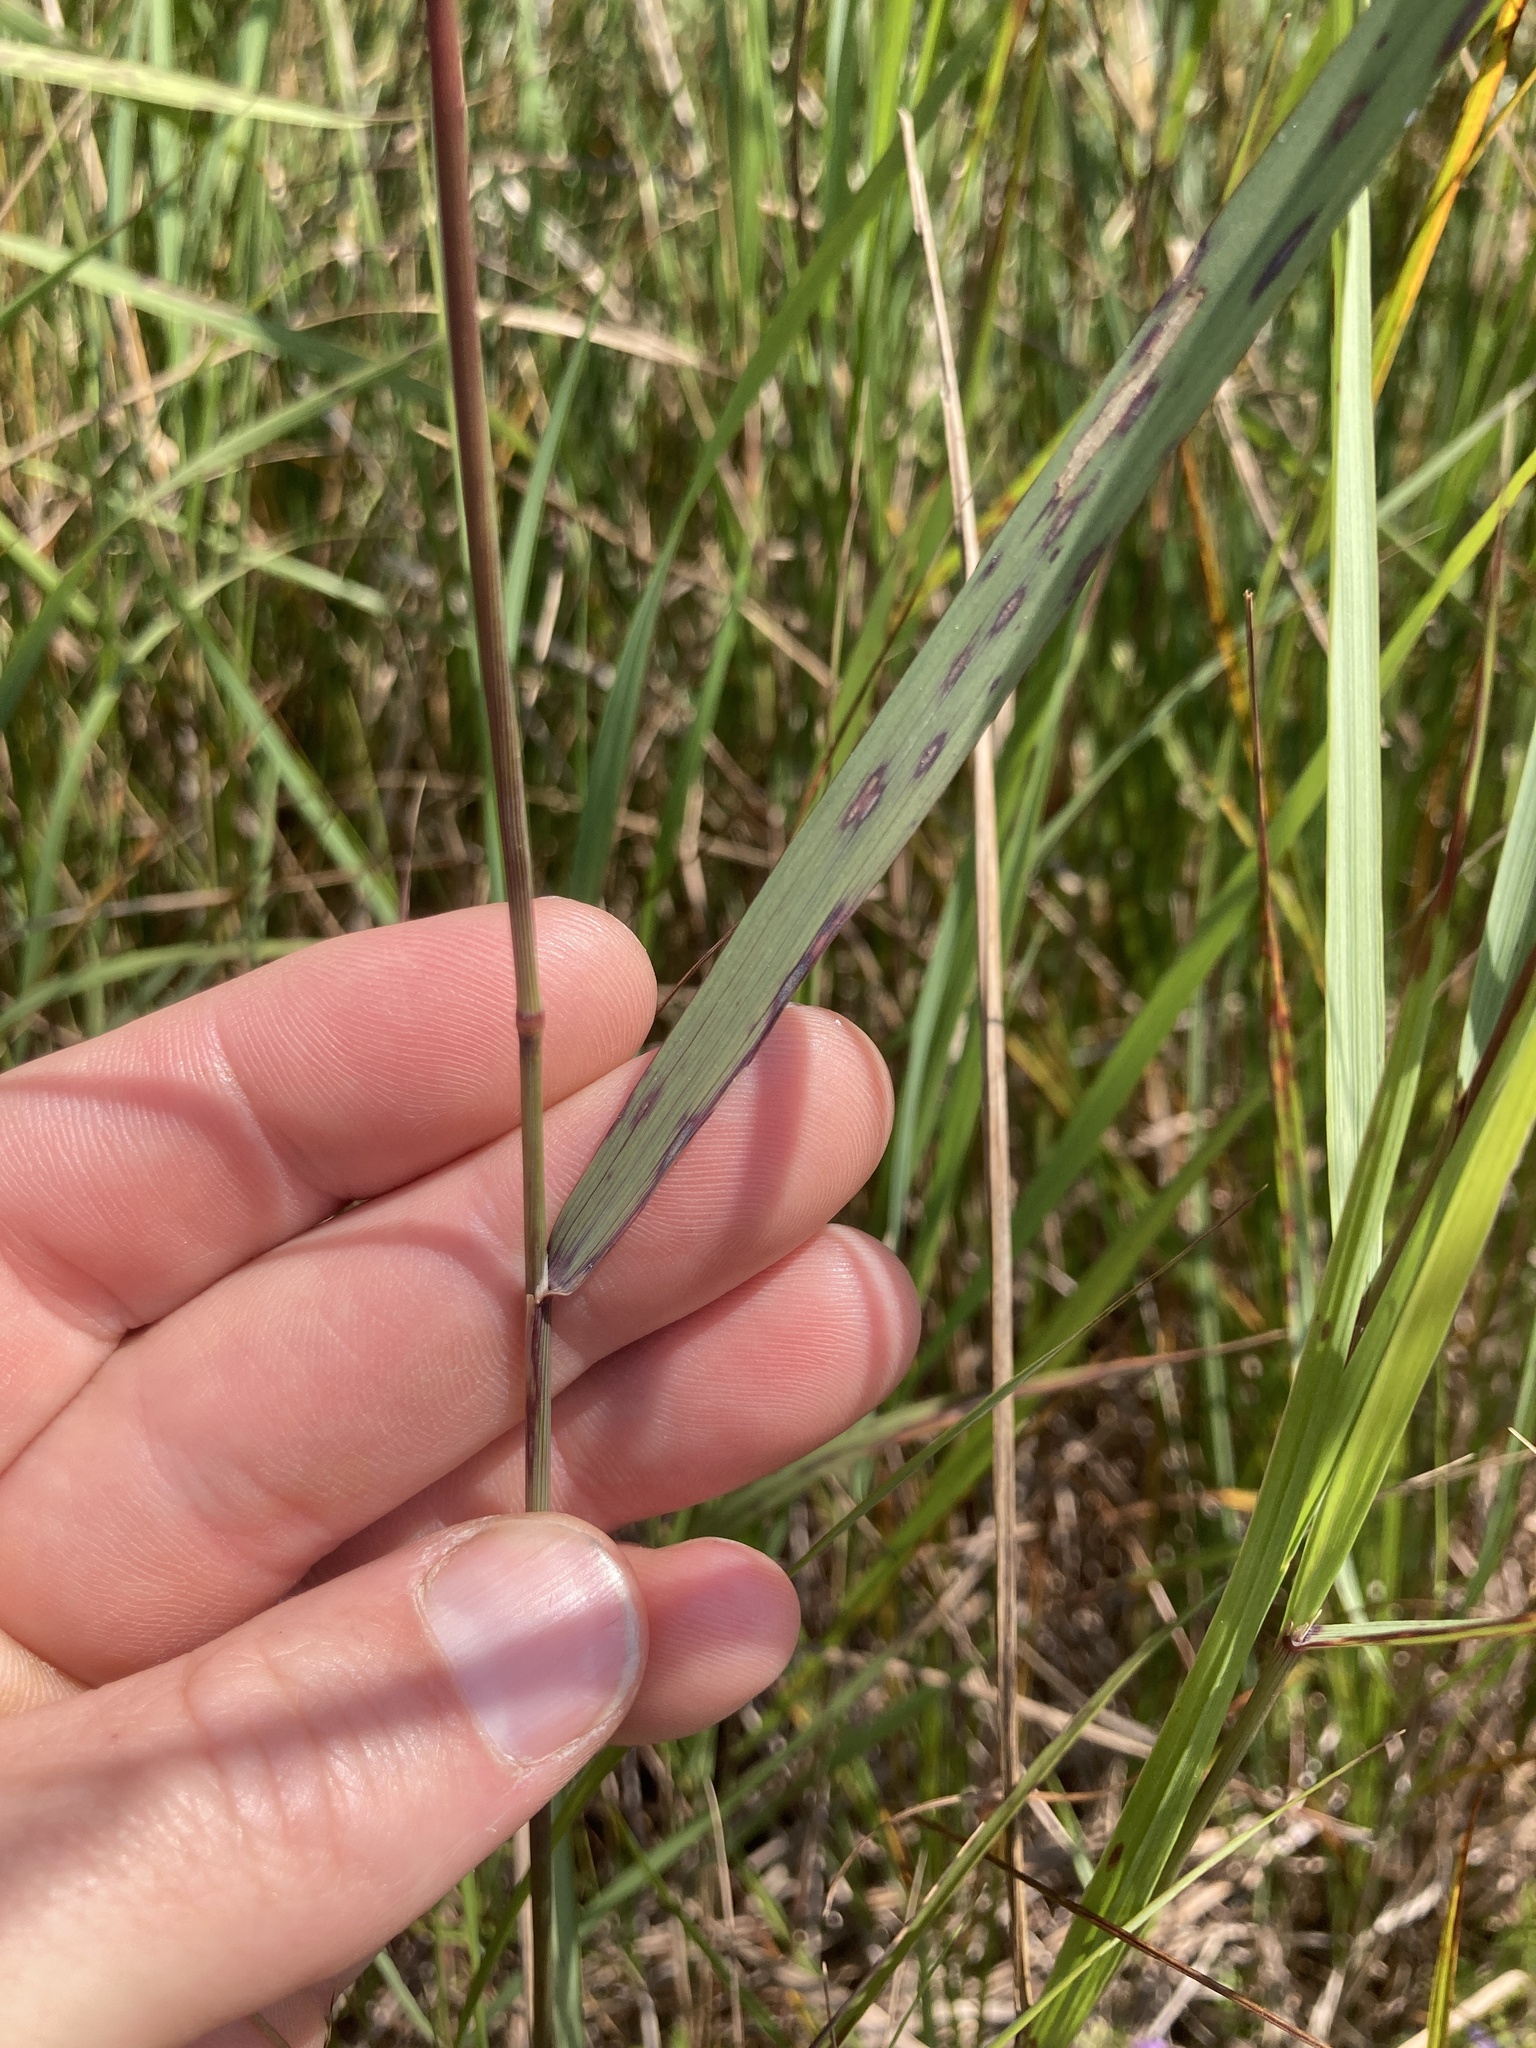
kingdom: Plantae
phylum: Tracheophyta
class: Liliopsida
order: Poales
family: Poaceae
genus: Calamagrostis
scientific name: Calamagrostis canadensis
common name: Canada bluejoint
